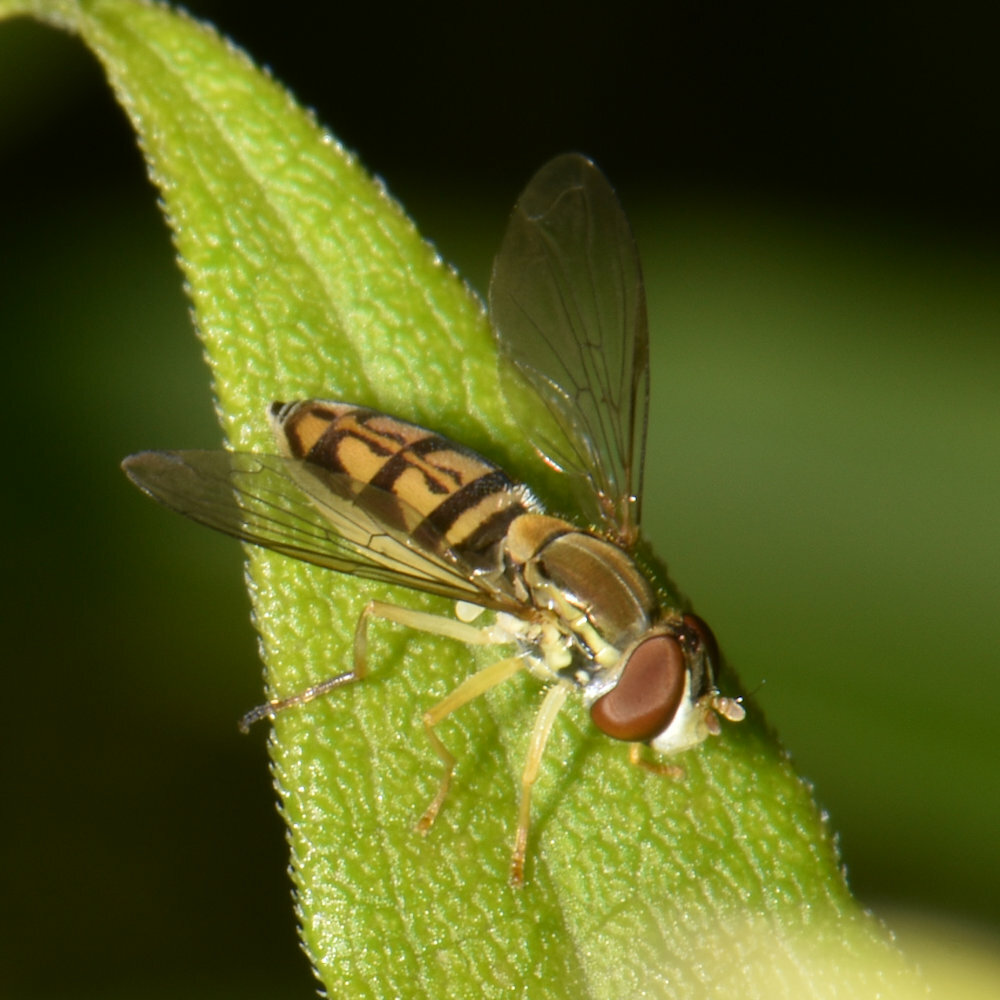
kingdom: Animalia
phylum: Arthropoda
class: Insecta
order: Diptera
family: Syrphidae
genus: Toxomerus
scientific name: Toxomerus marginatus
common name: Syrphid fly
